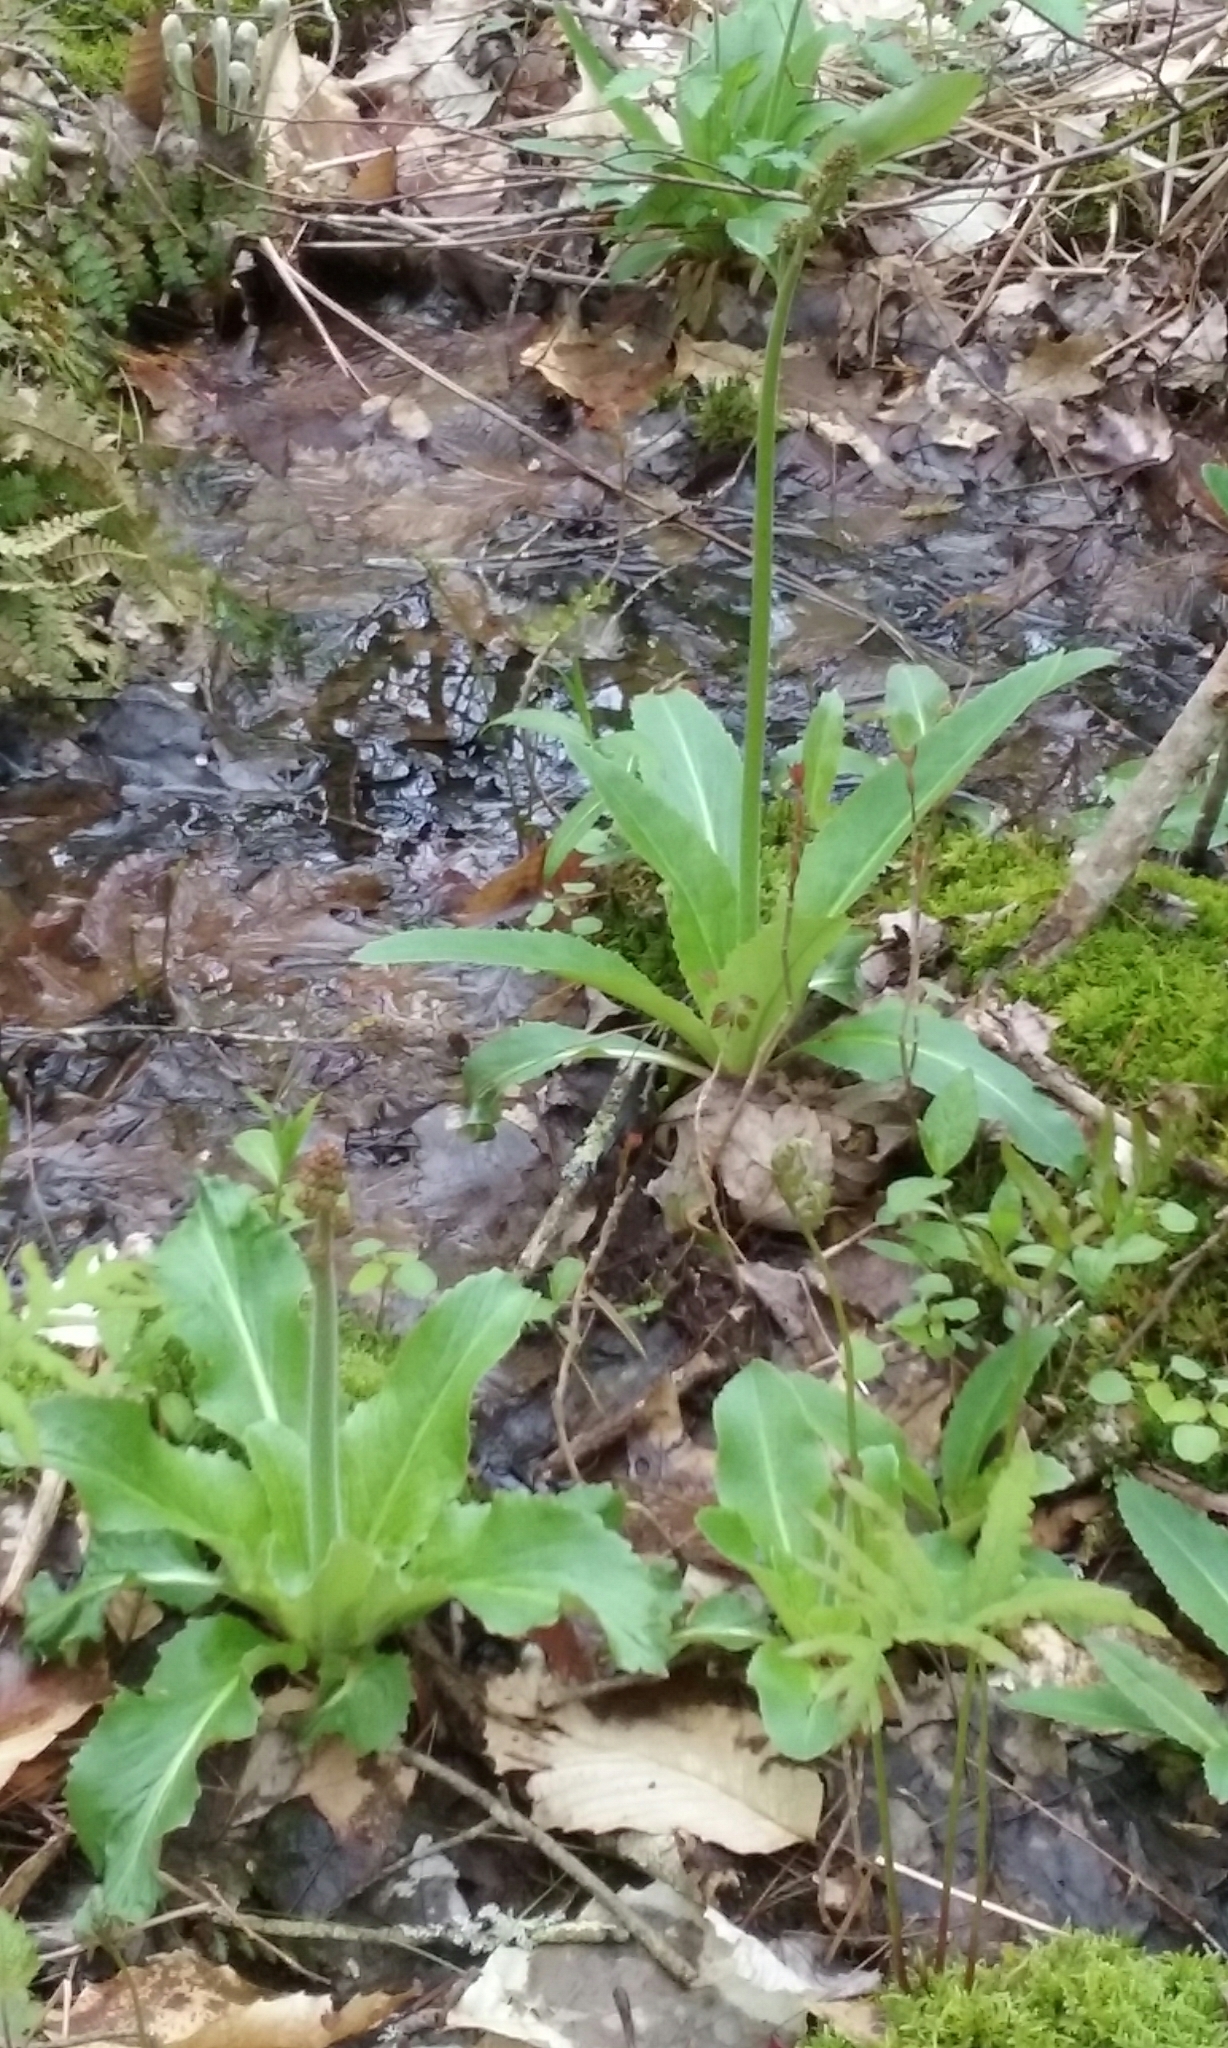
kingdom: Plantae
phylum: Tracheophyta
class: Magnoliopsida
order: Saxifragales
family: Saxifragaceae
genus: Micranthes
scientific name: Micranthes pensylvanica
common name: Marsh saxifrage
